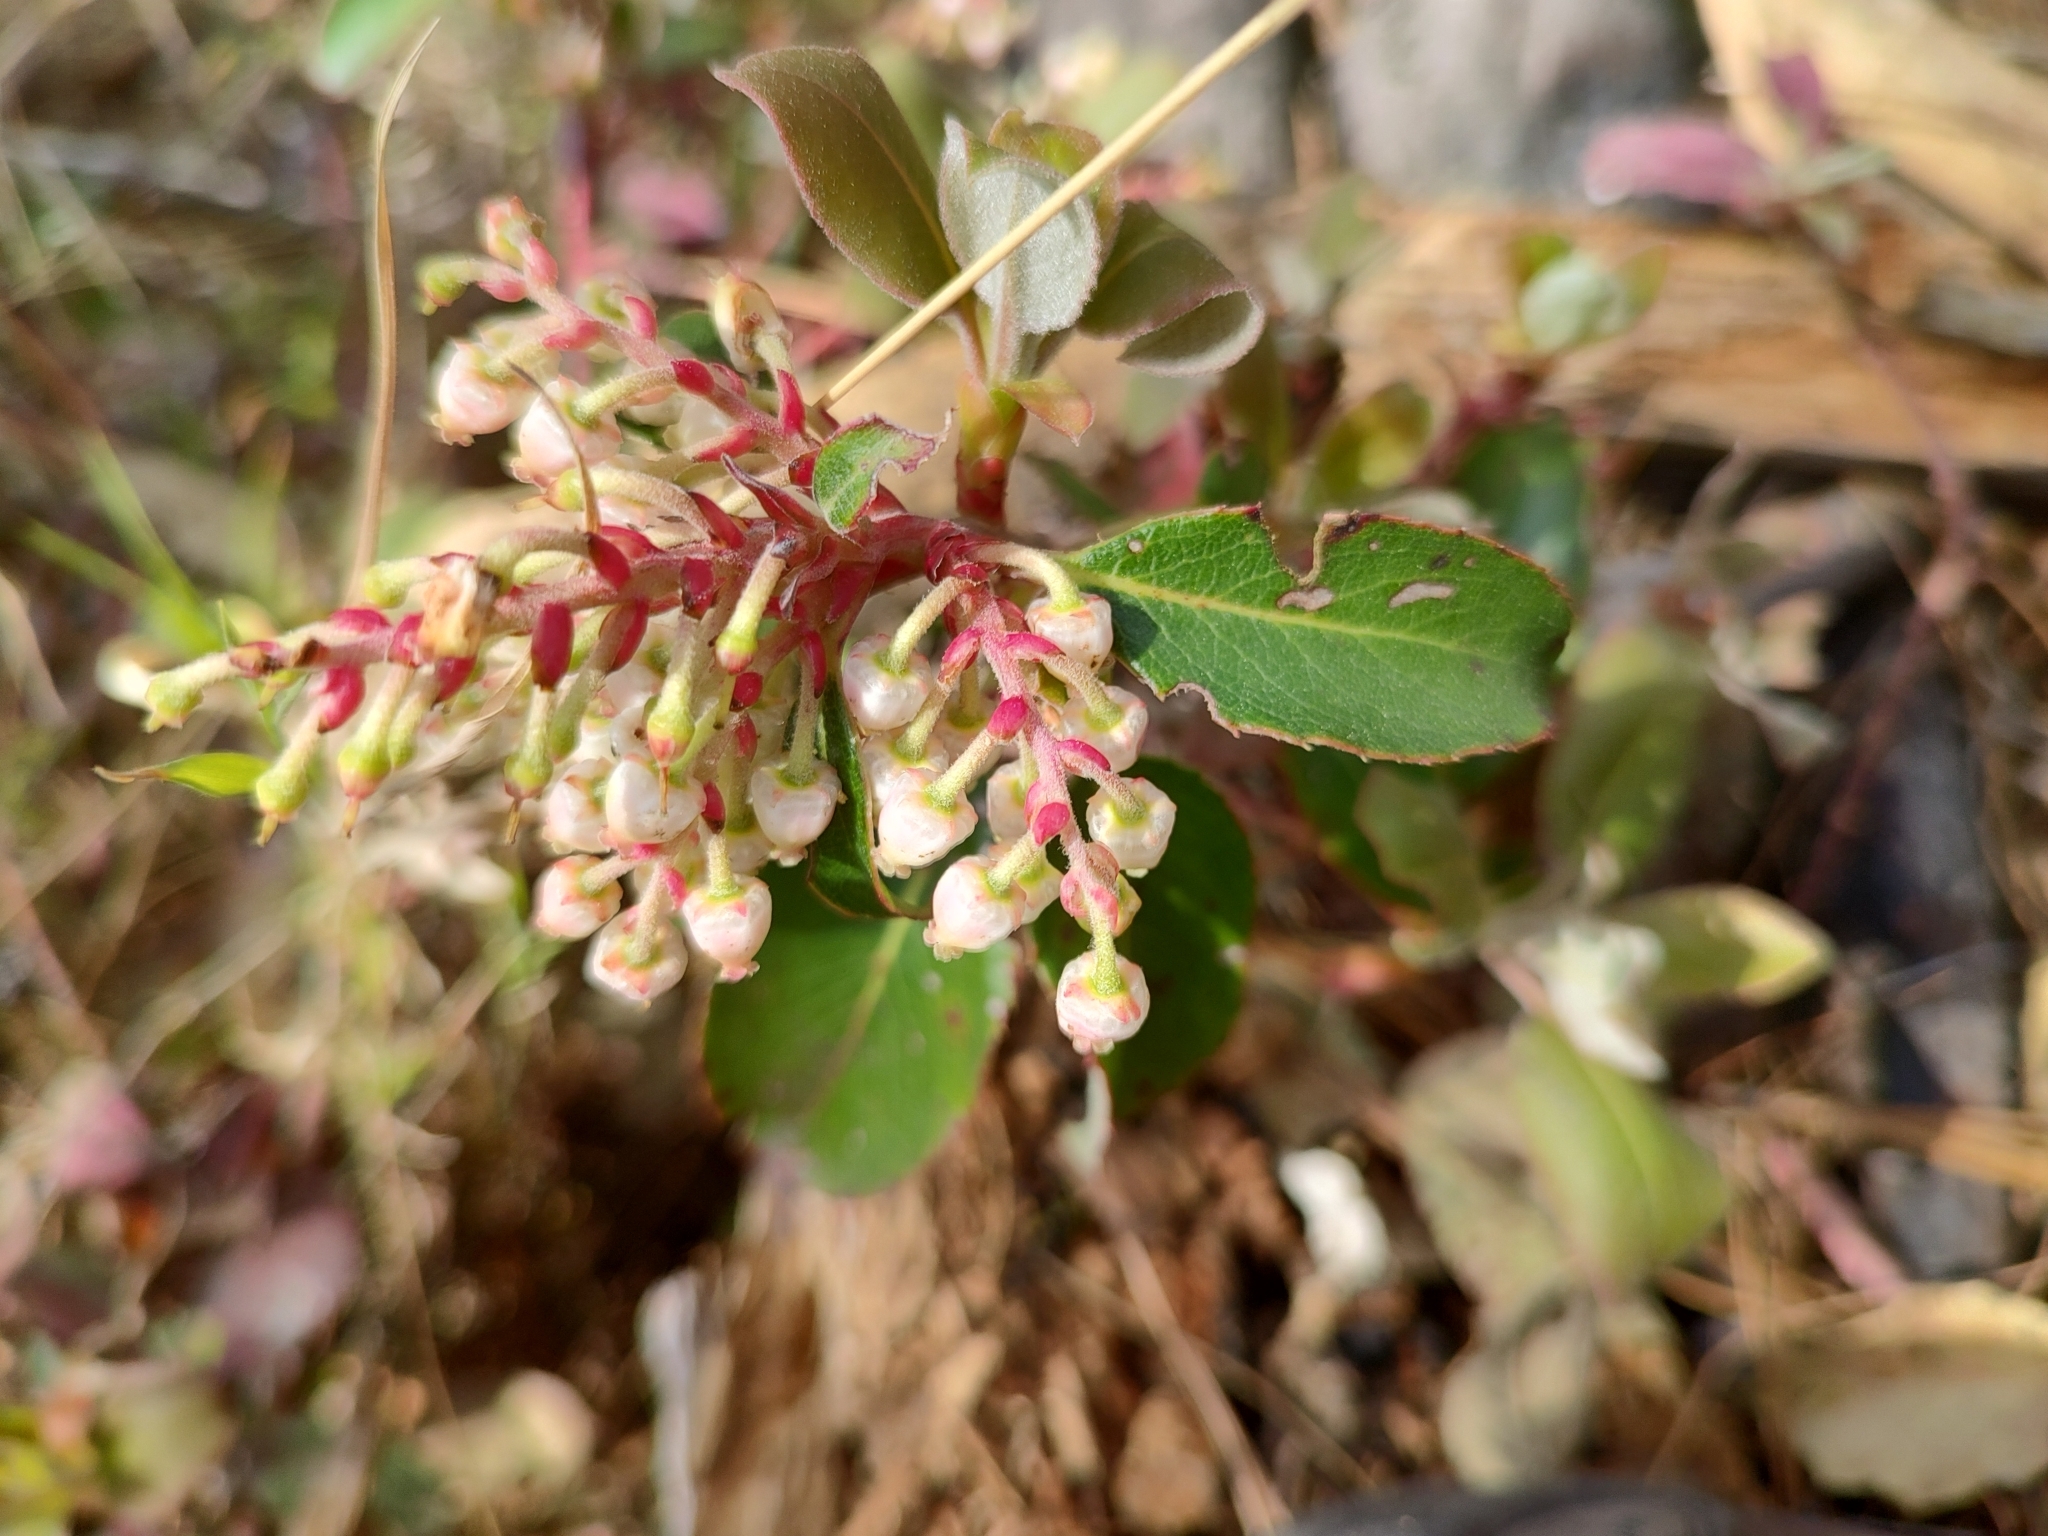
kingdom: Plantae
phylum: Tracheophyta
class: Magnoliopsida
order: Ericales
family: Ericaceae
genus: Arbutus
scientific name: Arbutus mollis
